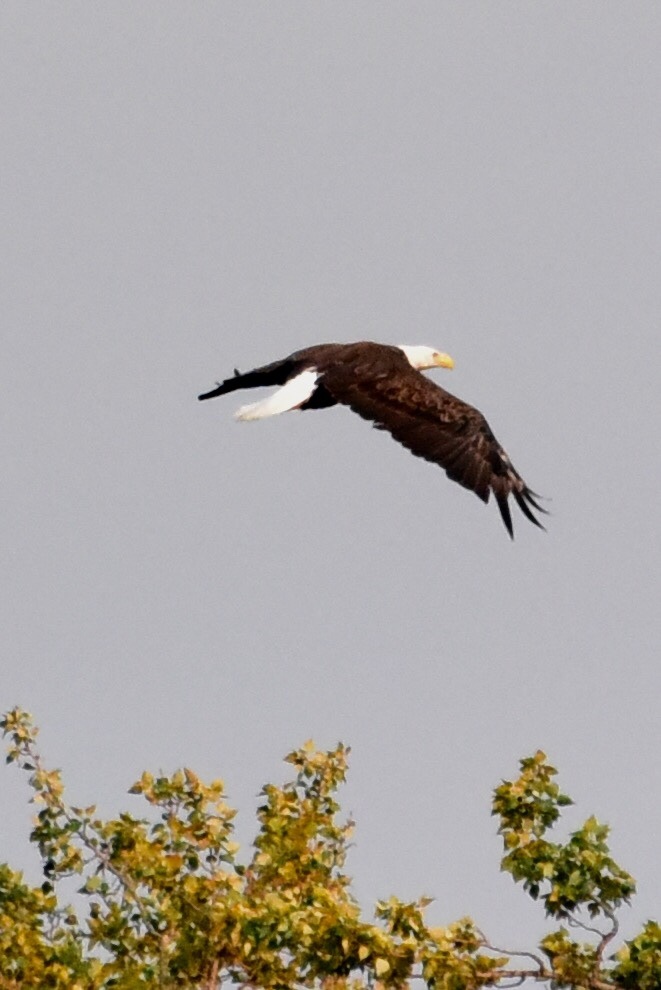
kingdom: Animalia
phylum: Chordata
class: Aves
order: Accipitriformes
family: Accipitridae
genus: Haliaeetus
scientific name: Haliaeetus leucocephalus
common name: Bald eagle
